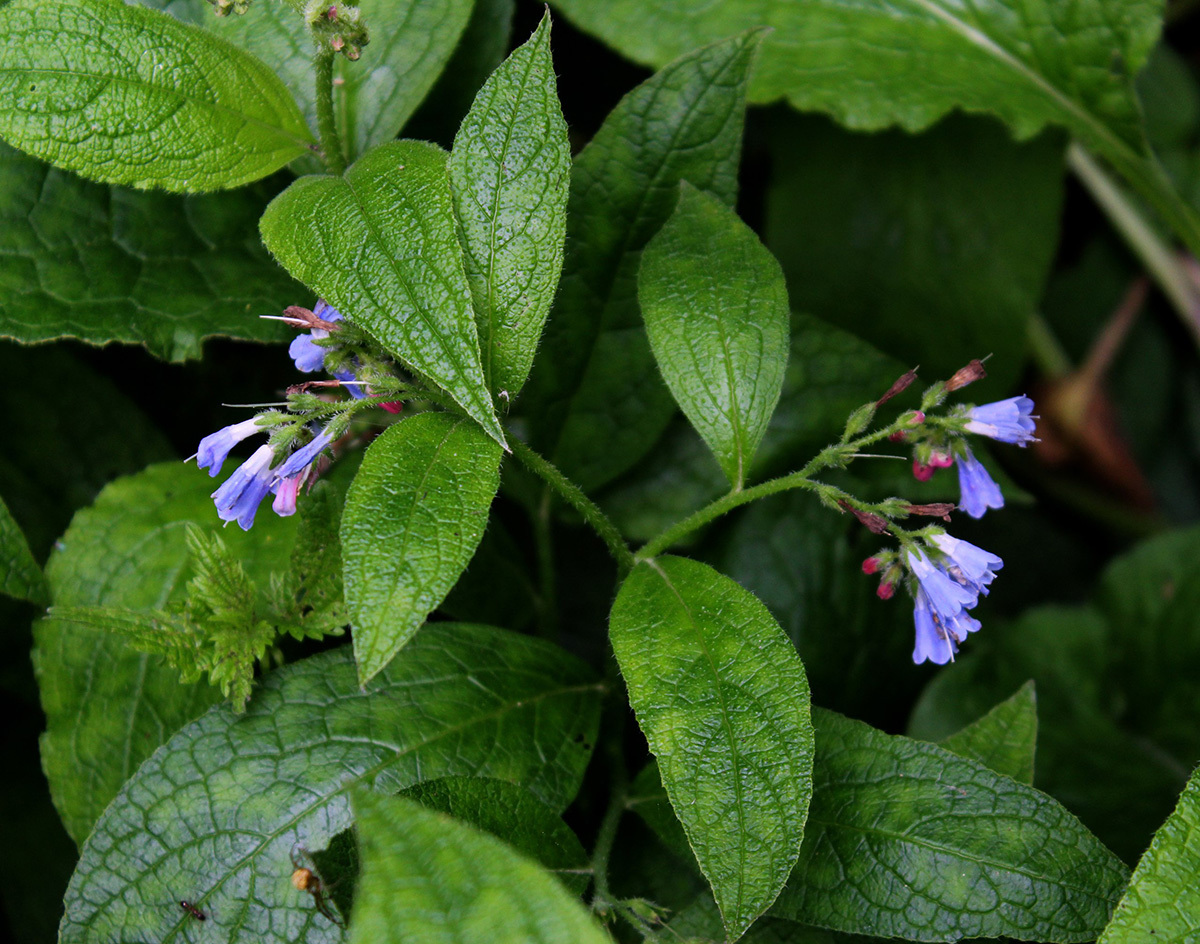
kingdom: Plantae
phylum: Tracheophyta
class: Magnoliopsida
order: Boraginales
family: Boraginaceae
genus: Symphytum
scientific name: Symphytum asperum
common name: Prickly comfrey
